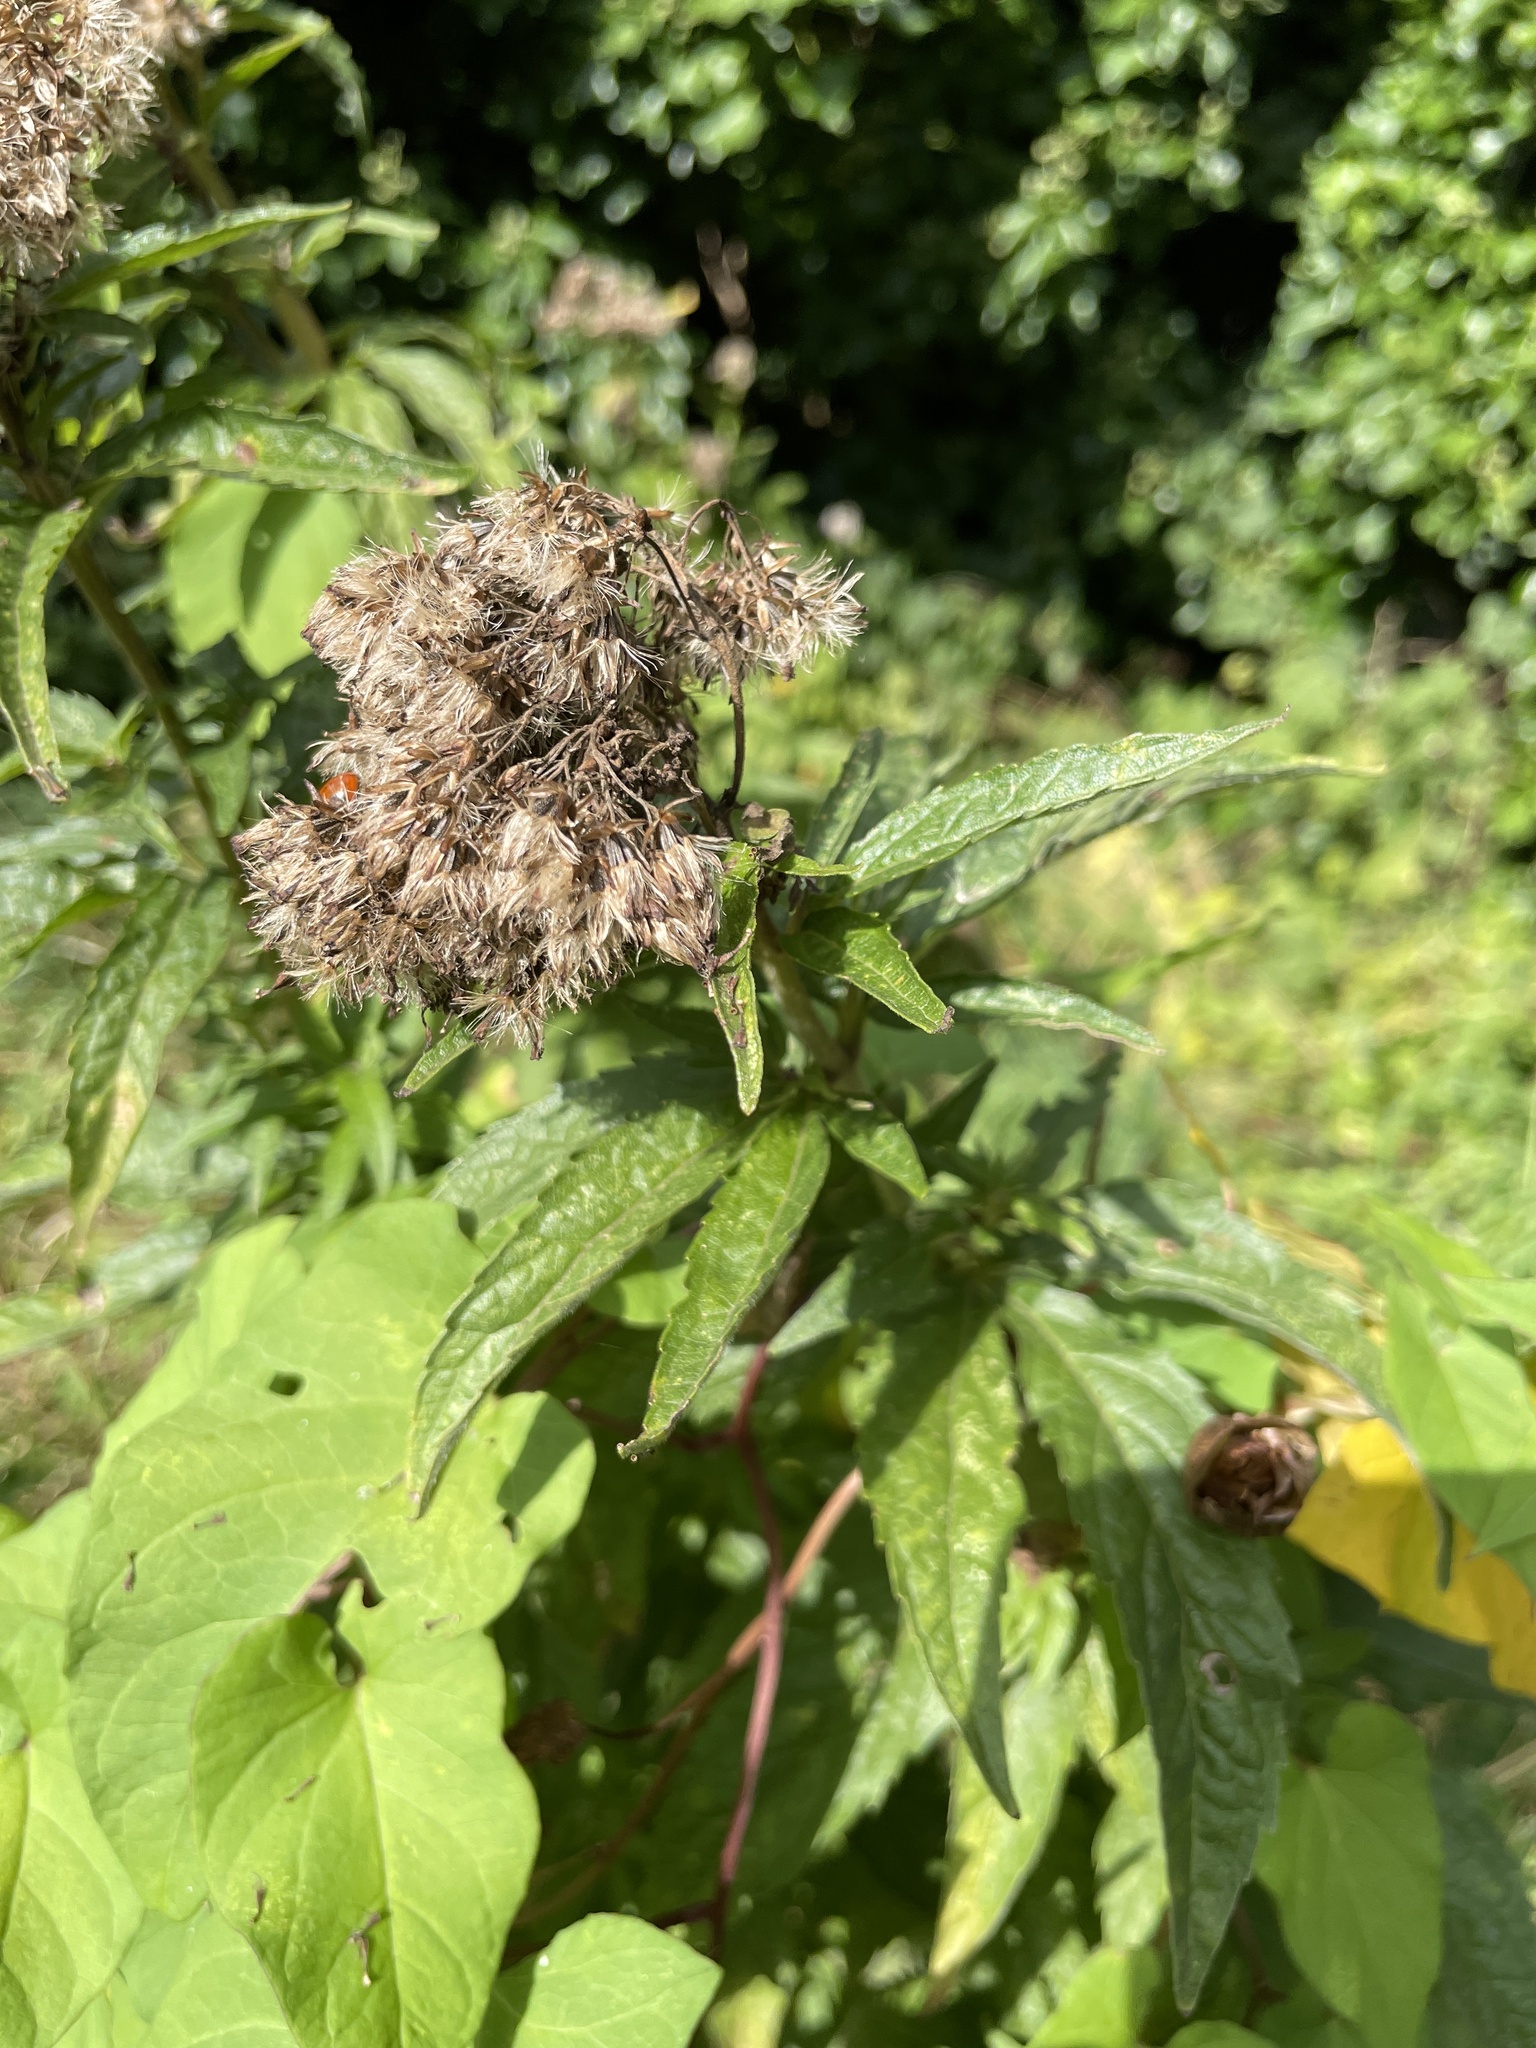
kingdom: Plantae
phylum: Tracheophyta
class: Magnoliopsida
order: Asterales
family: Asteraceae
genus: Eupatorium
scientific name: Eupatorium cannabinum
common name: Hemp-agrimony
